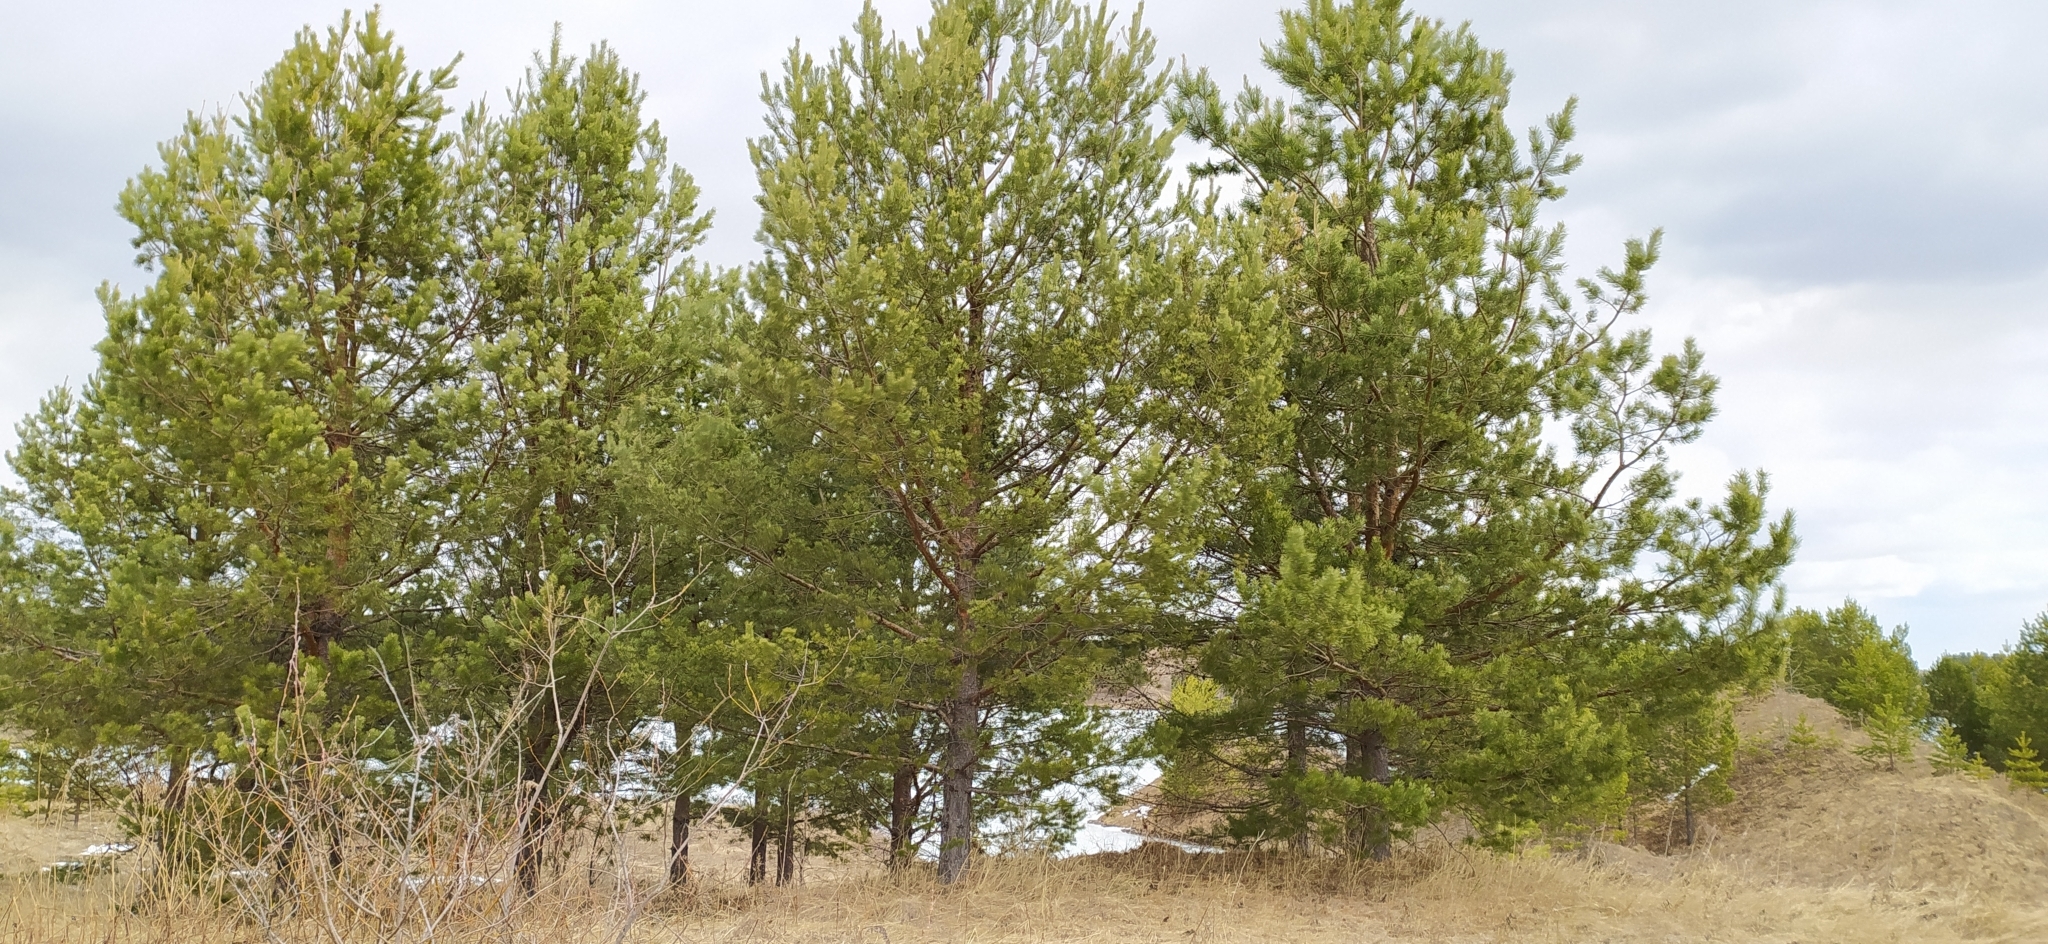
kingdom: Plantae
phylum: Tracheophyta
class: Pinopsida
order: Pinales
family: Pinaceae
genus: Pinus
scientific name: Pinus sylvestris
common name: Scots pine
